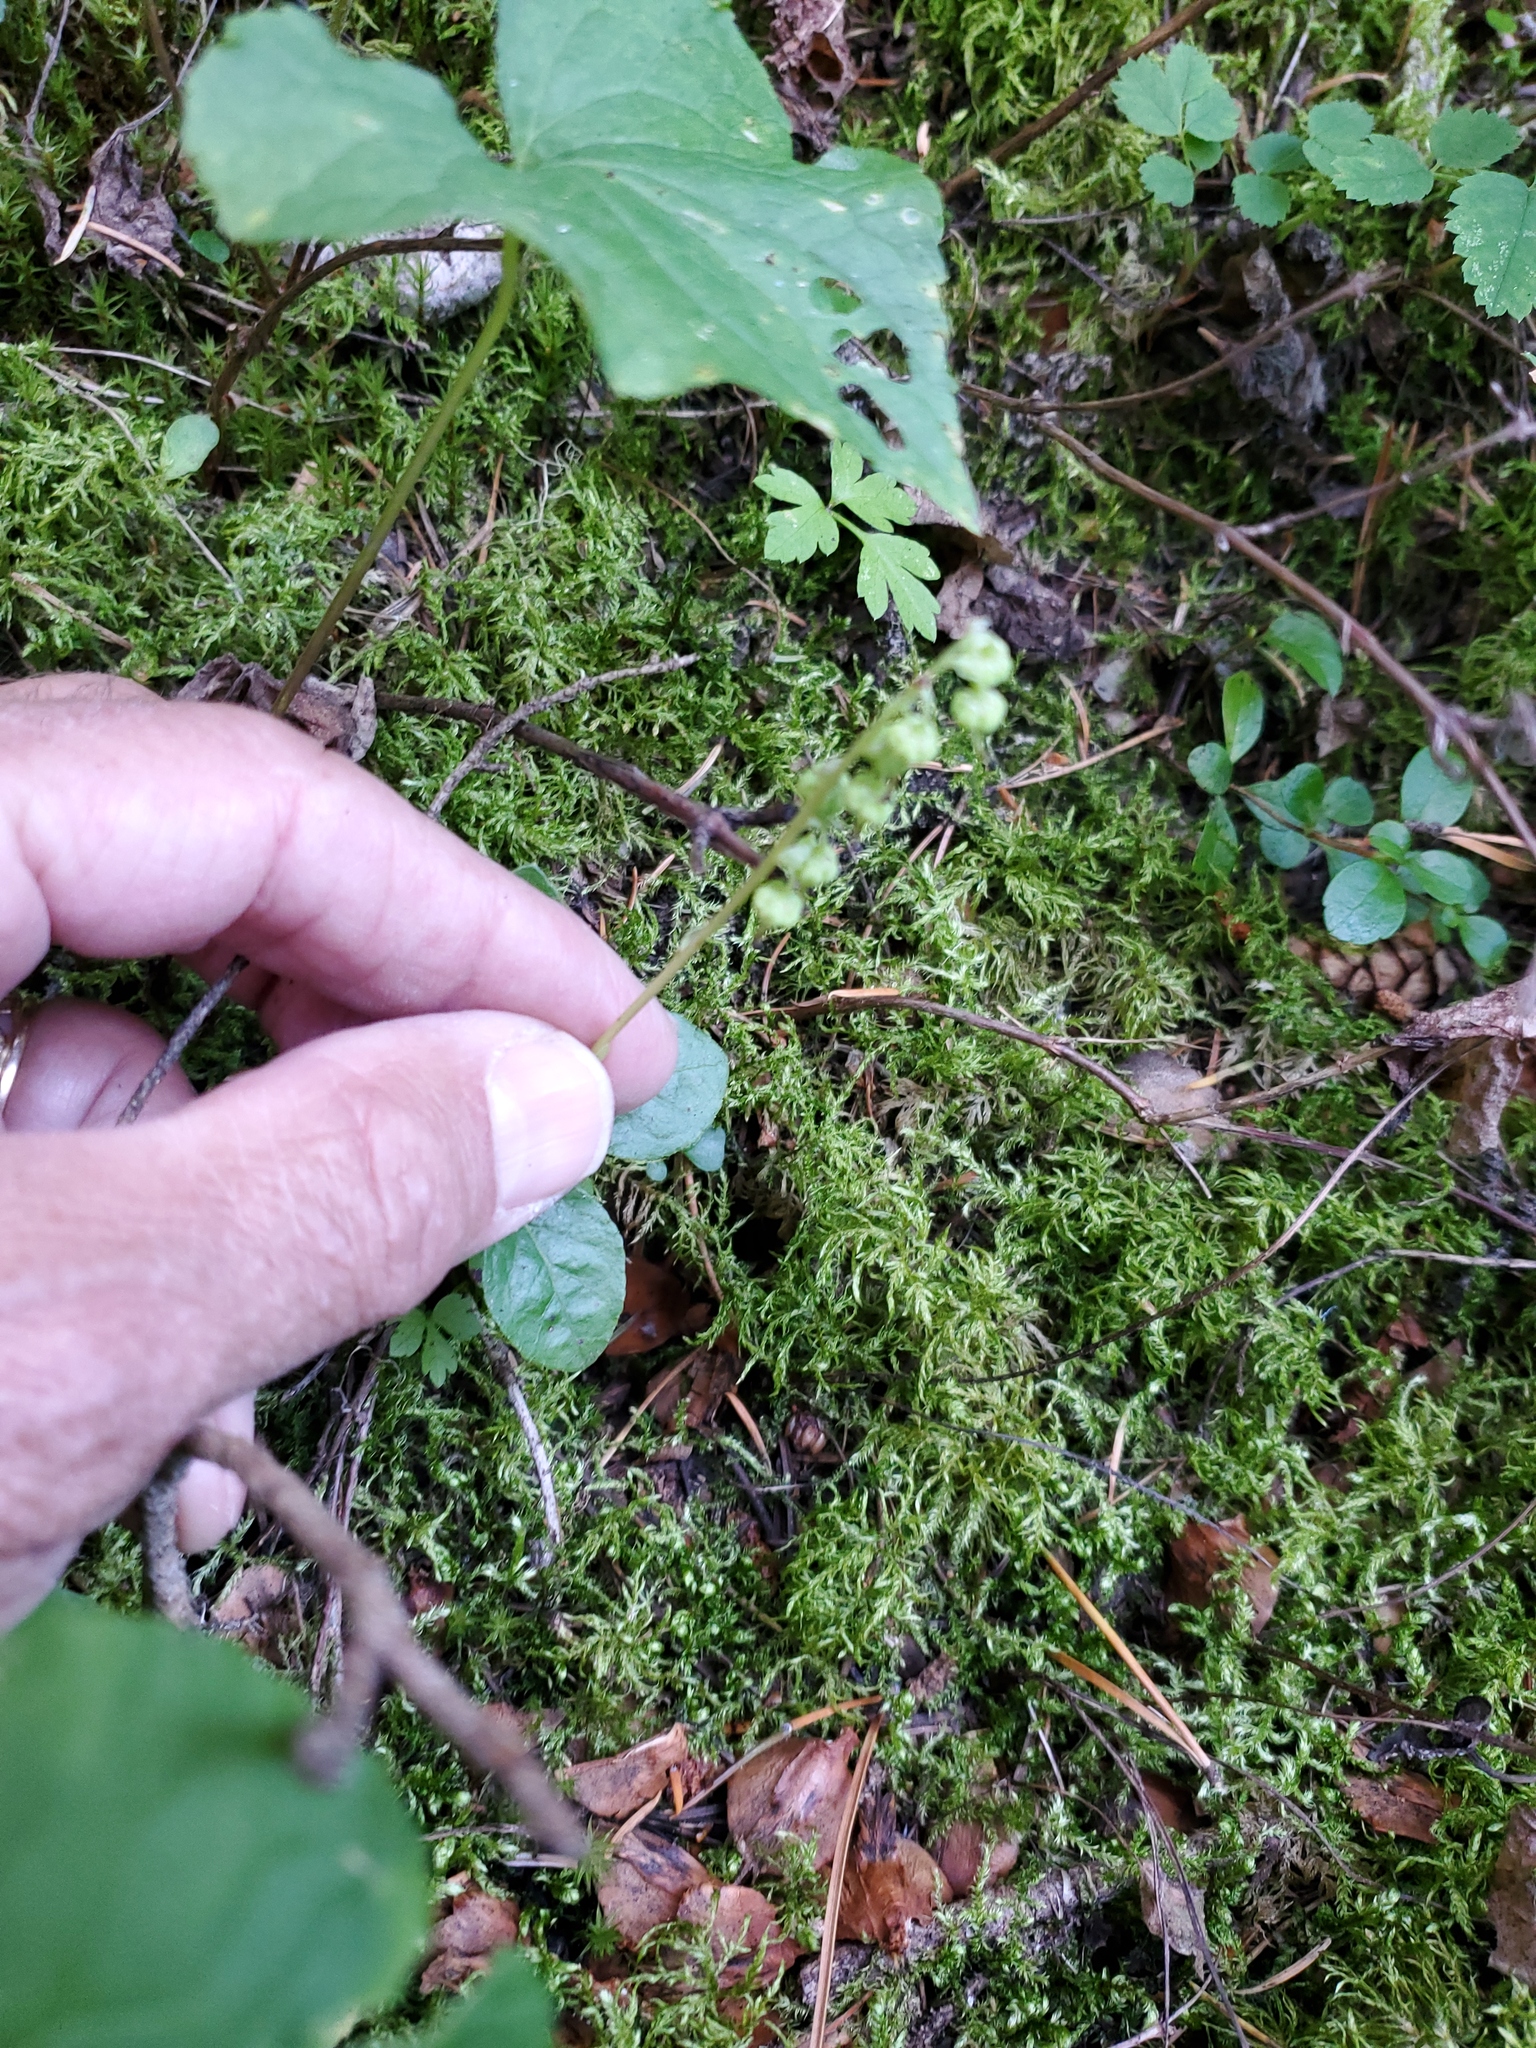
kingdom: Plantae
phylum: Tracheophyta
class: Magnoliopsida
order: Ericales
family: Ericaceae
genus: Orthilia
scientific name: Orthilia secunda
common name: One-sided orthilia
